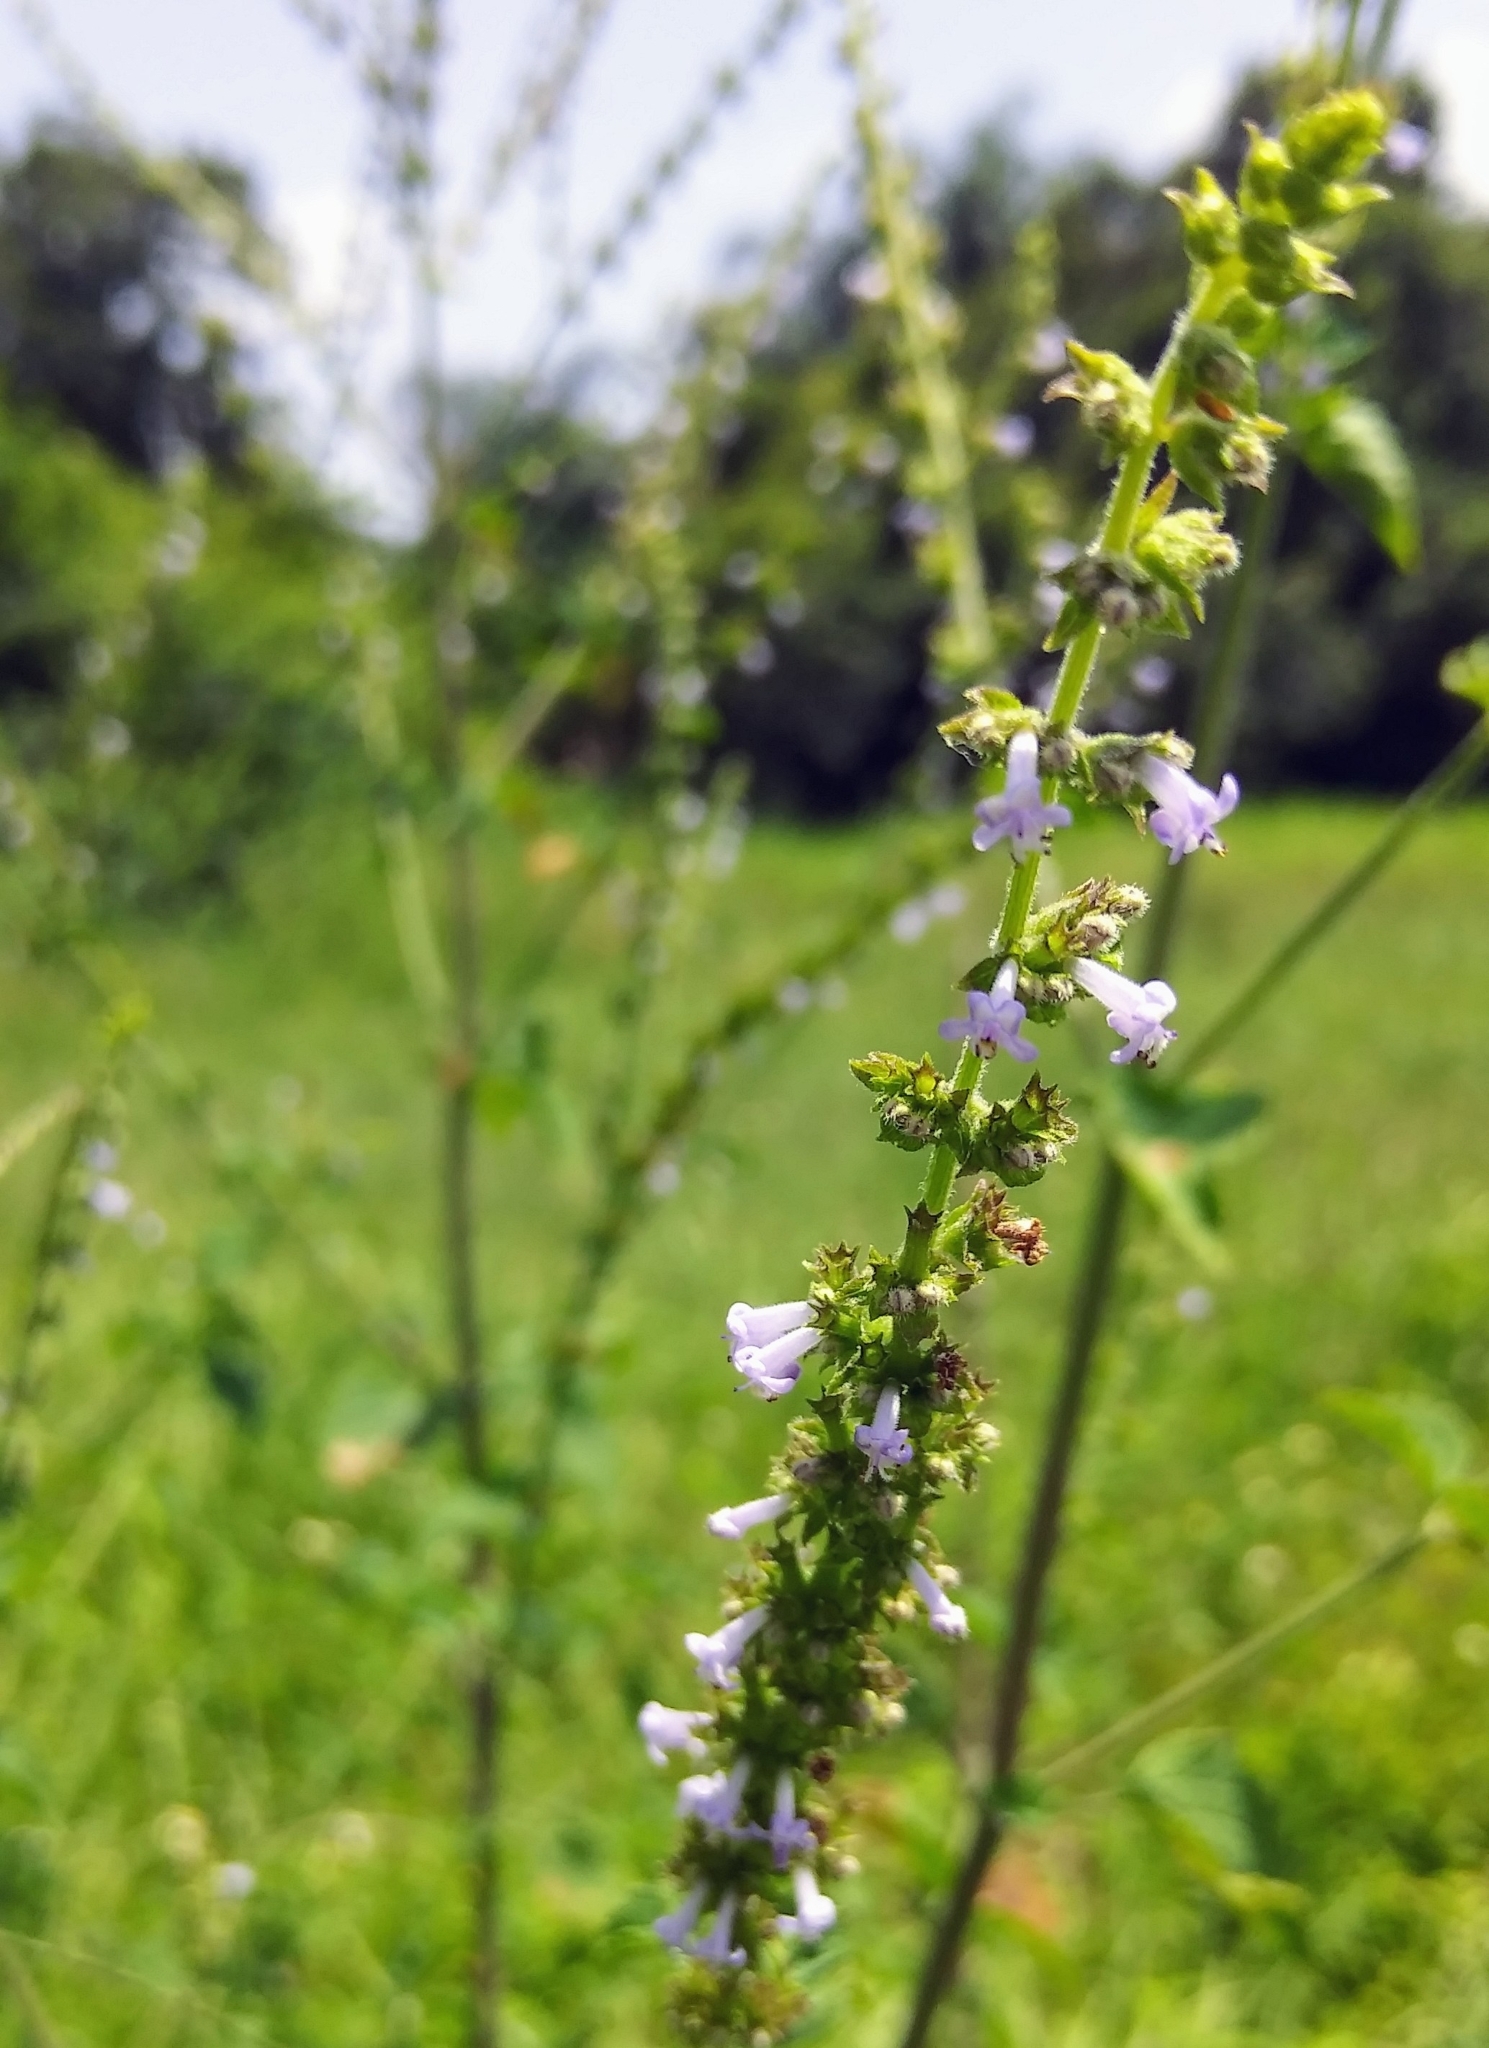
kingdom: Plantae
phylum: Tracheophyta
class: Magnoliopsida
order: Lamiales
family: Lamiaceae
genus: Cantinoa
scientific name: Cantinoa mutabilis
